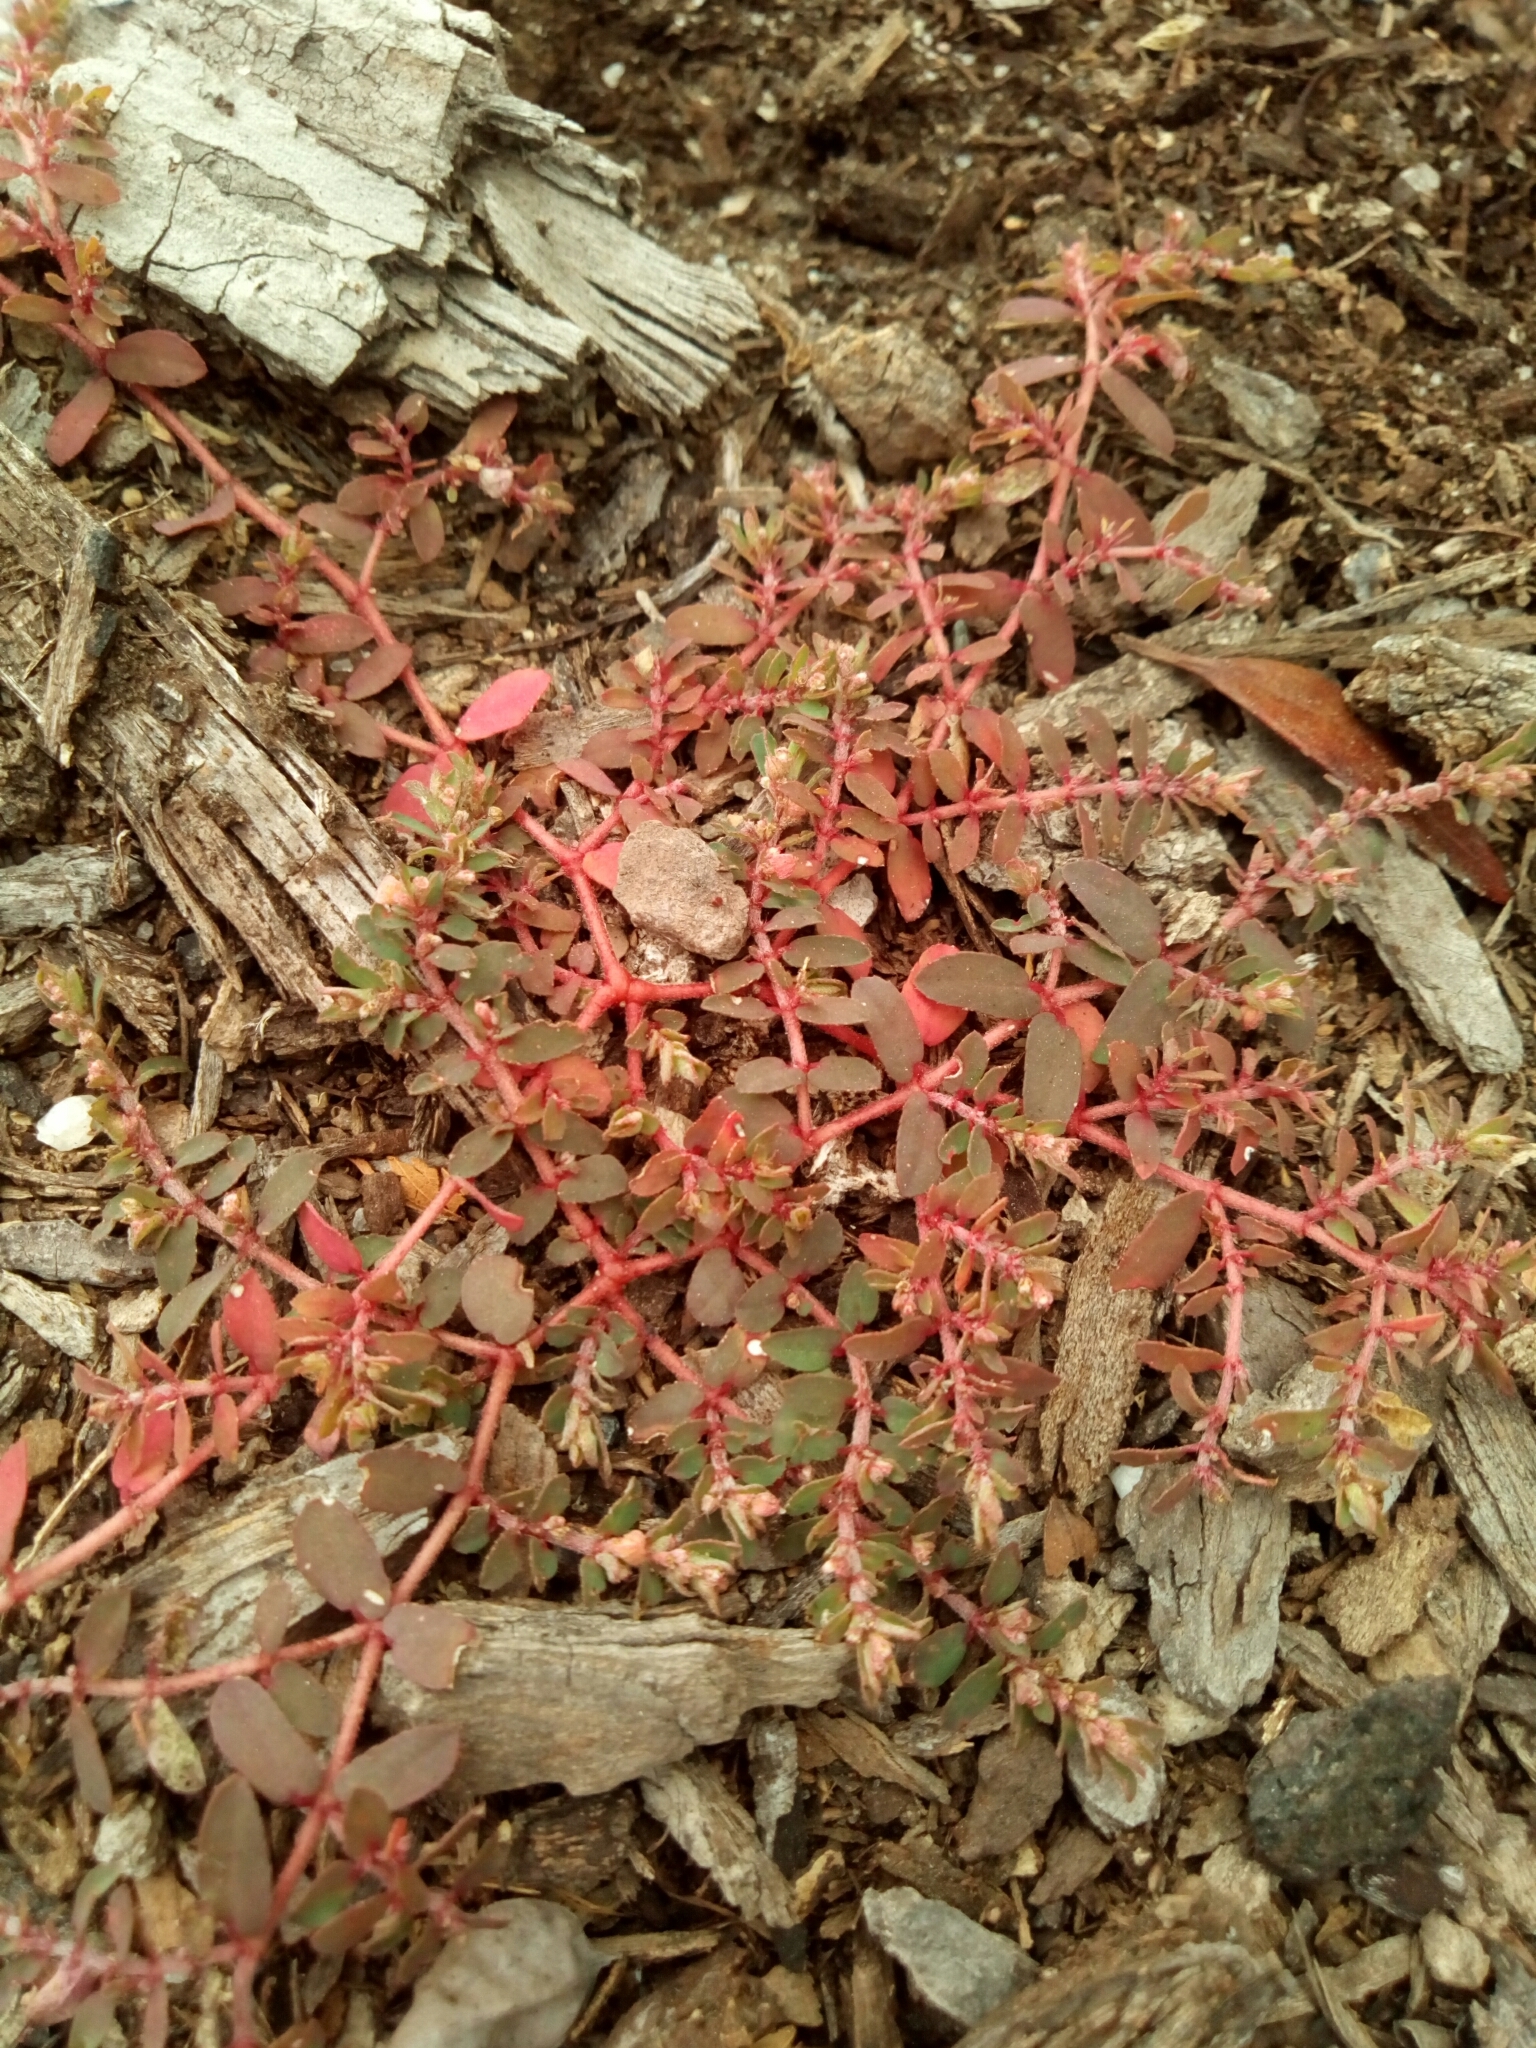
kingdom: Plantae
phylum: Tracheophyta
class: Magnoliopsida
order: Malpighiales
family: Euphorbiaceae
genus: Euphorbia
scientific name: Euphorbia maculata
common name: Spotted spurge
